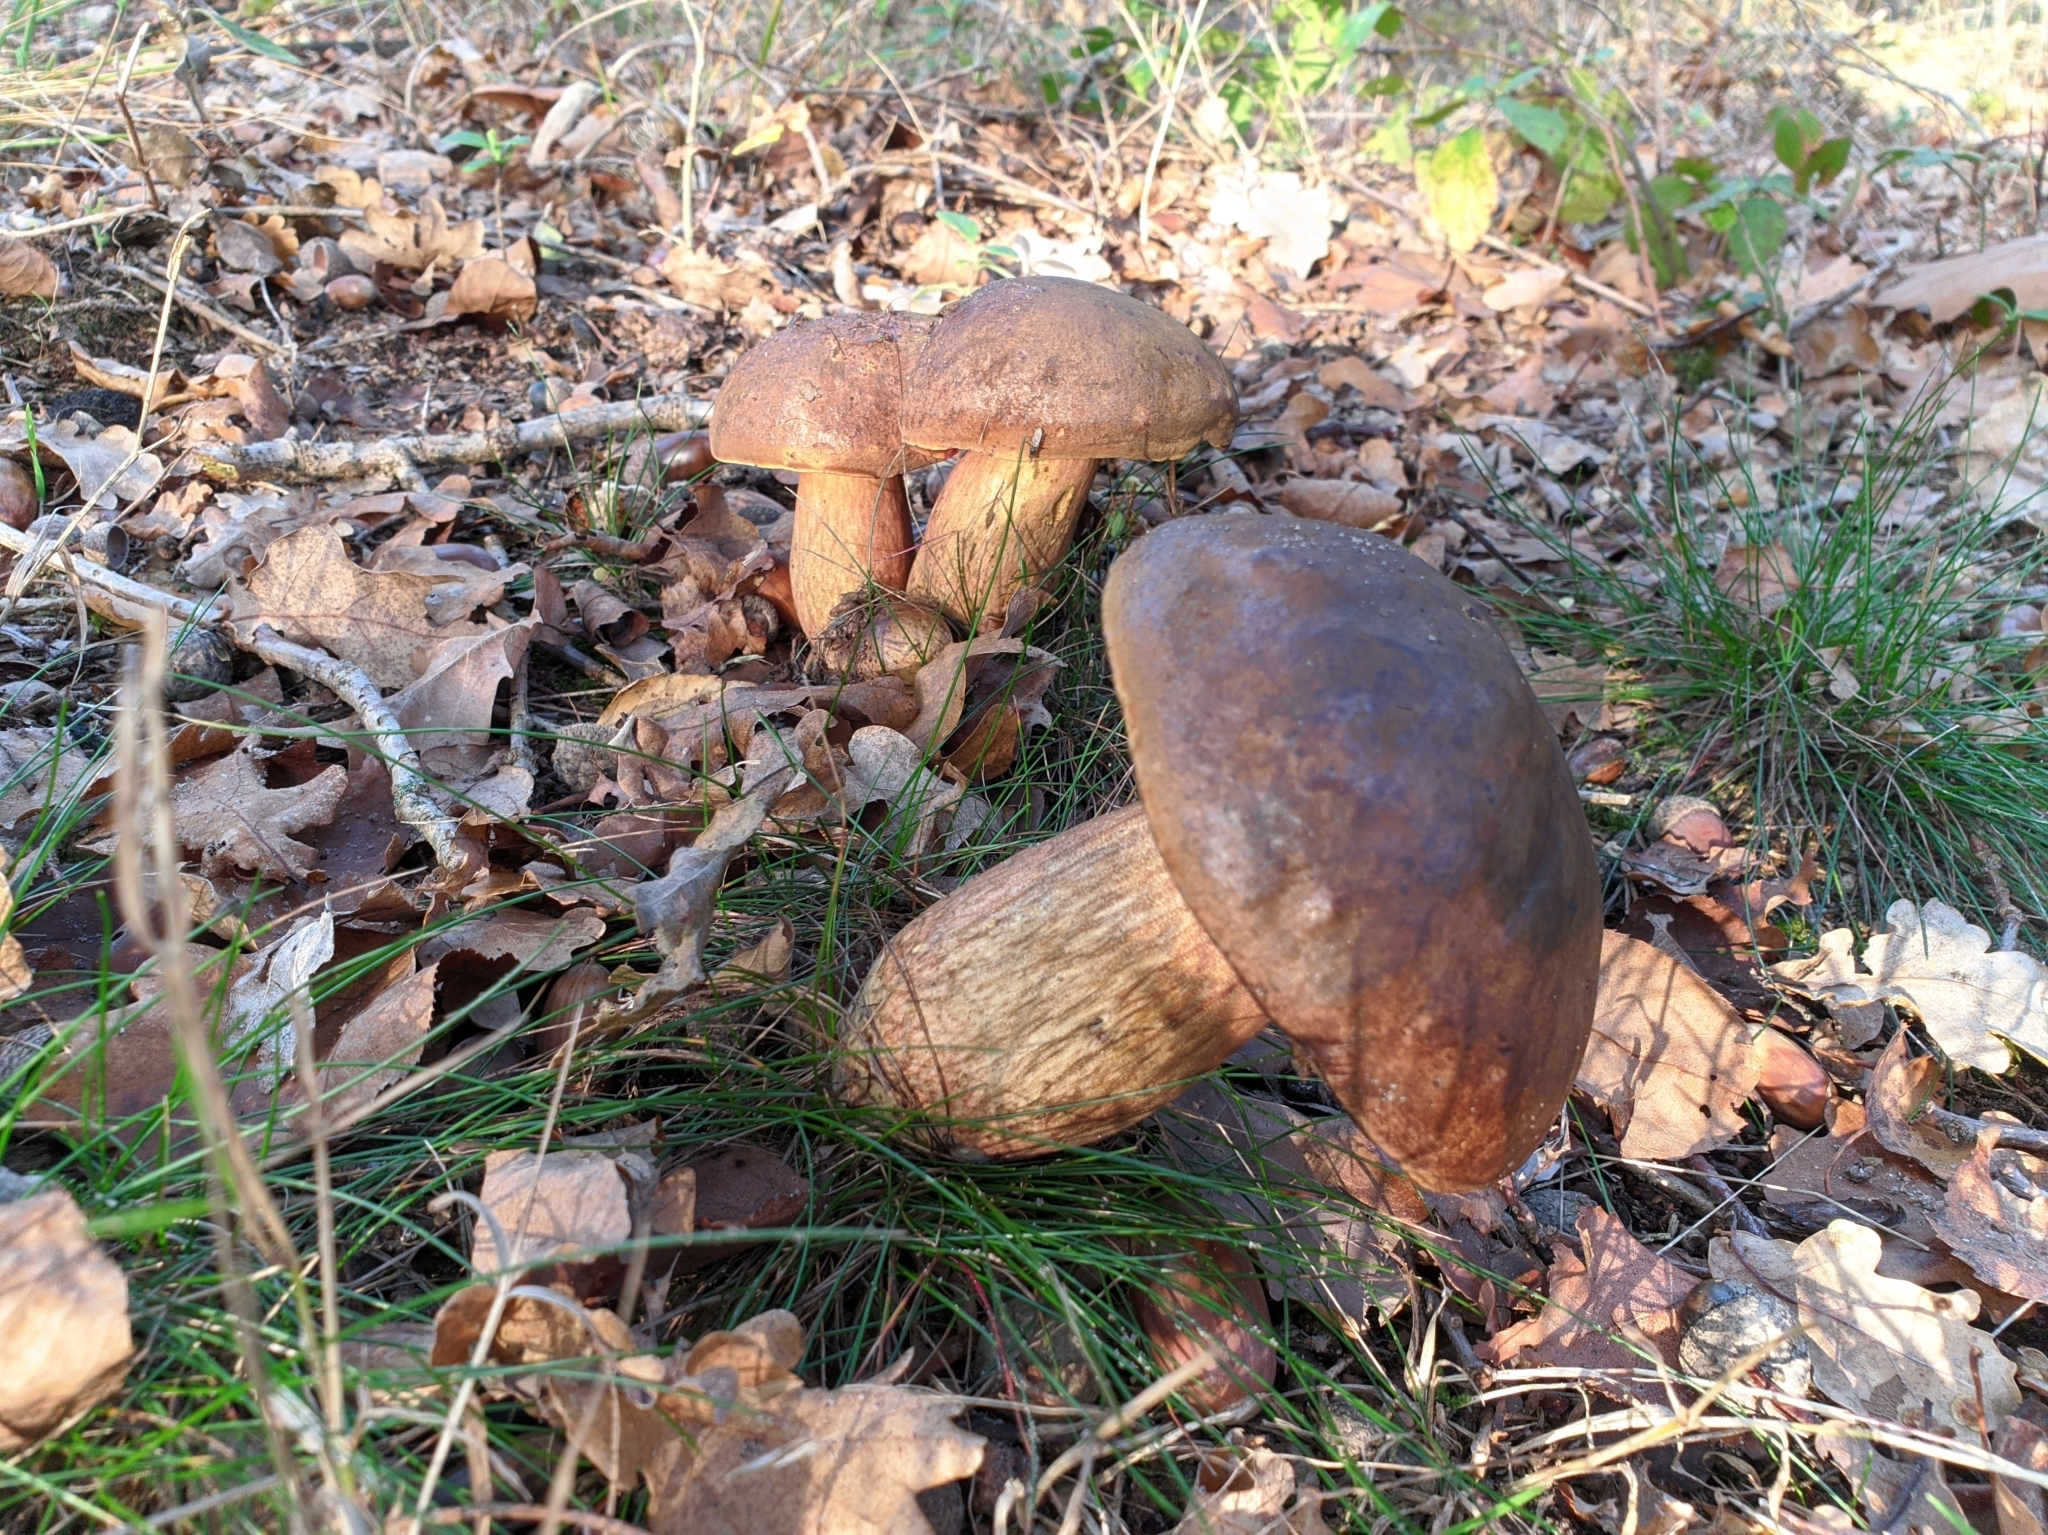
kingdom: Fungi
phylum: Basidiomycota
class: Agaricomycetes
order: Boletales
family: Boletaceae
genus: Imleria
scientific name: Imleria badia
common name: Bay bolete
